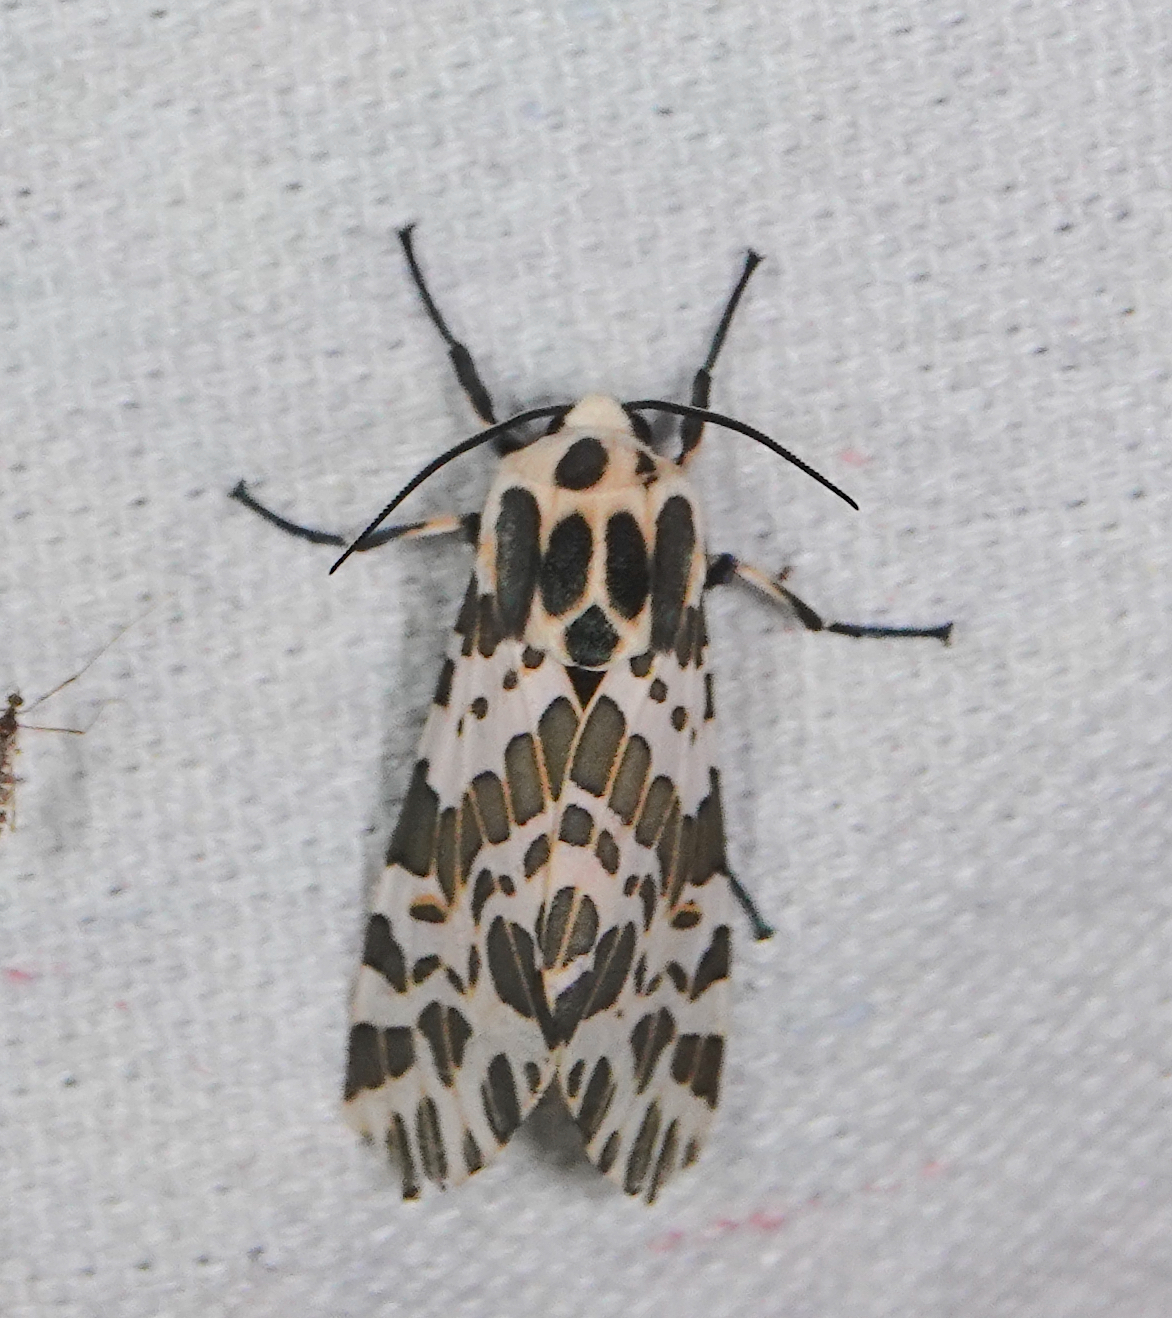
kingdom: Animalia
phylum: Arthropoda
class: Insecta
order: Lepidoptera
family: Erebidae
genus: Hypercompe
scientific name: Hypercompe laeta
